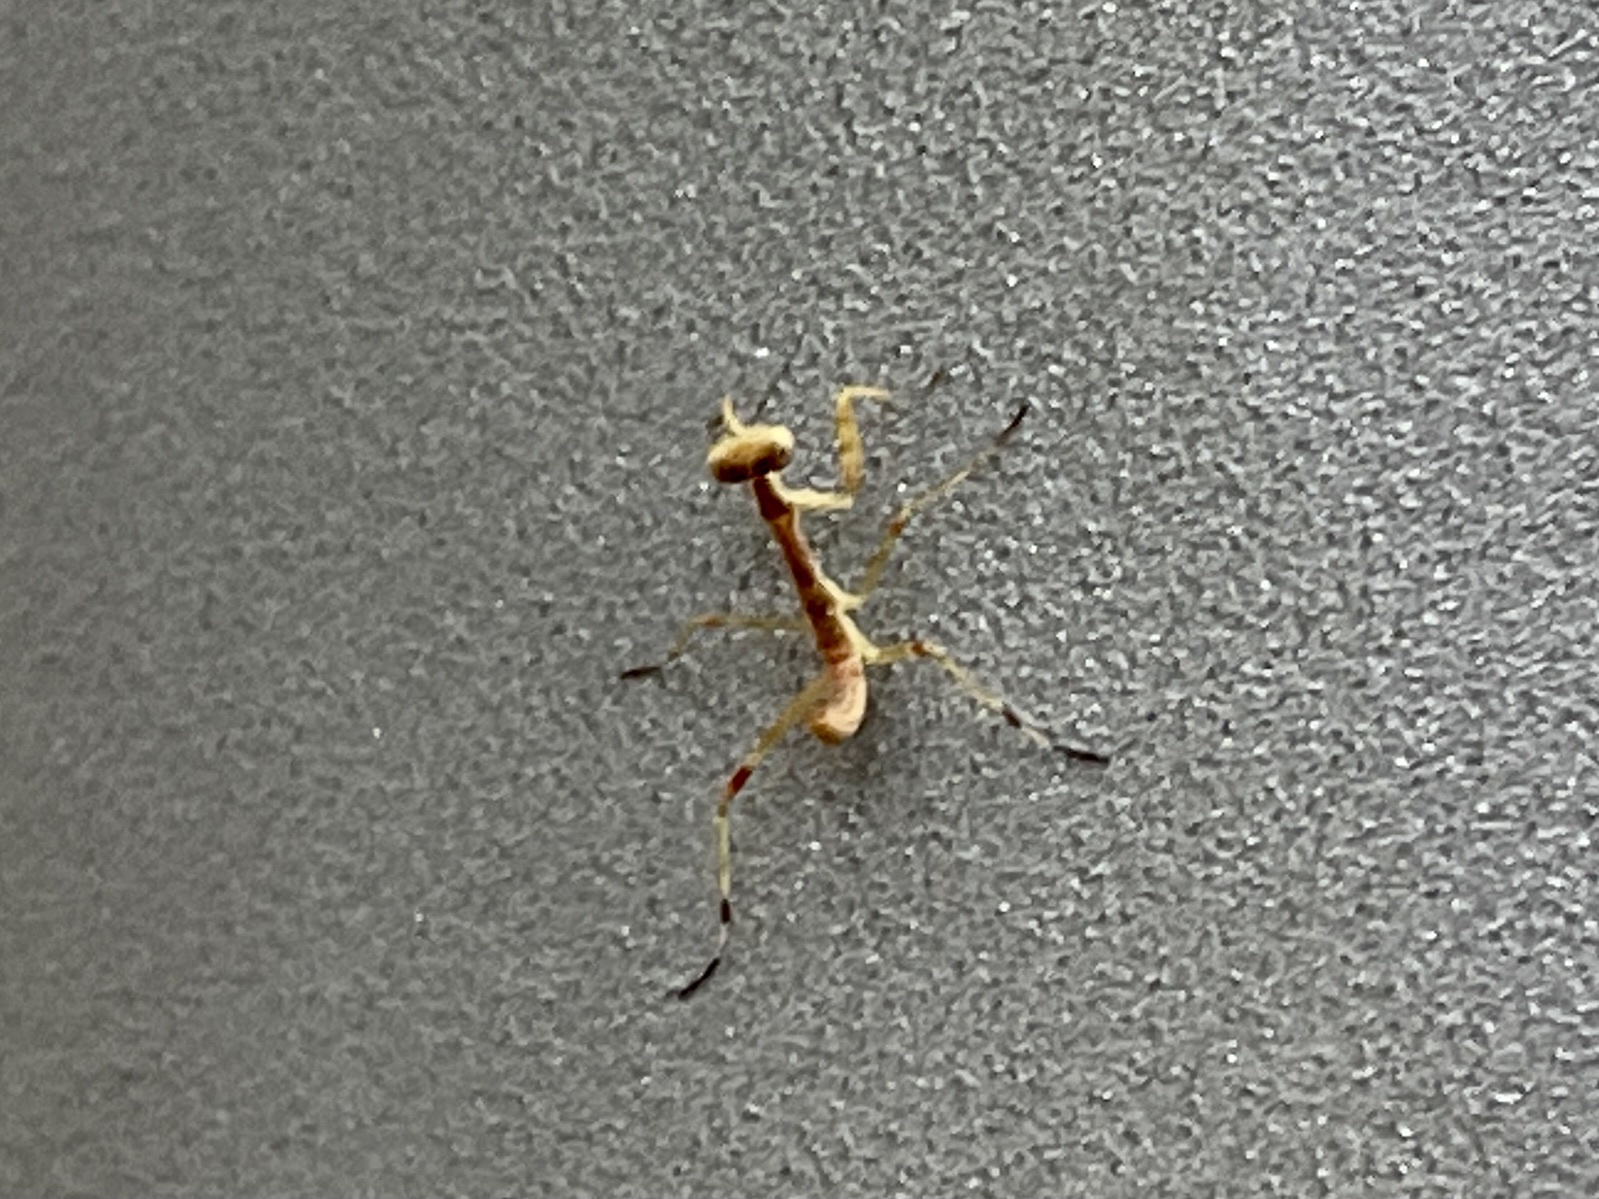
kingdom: Animalia
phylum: Arthropoda
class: Insecta
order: Mantodea
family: Mantidae
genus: Stagmomantis
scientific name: Stagmomantis limbata
